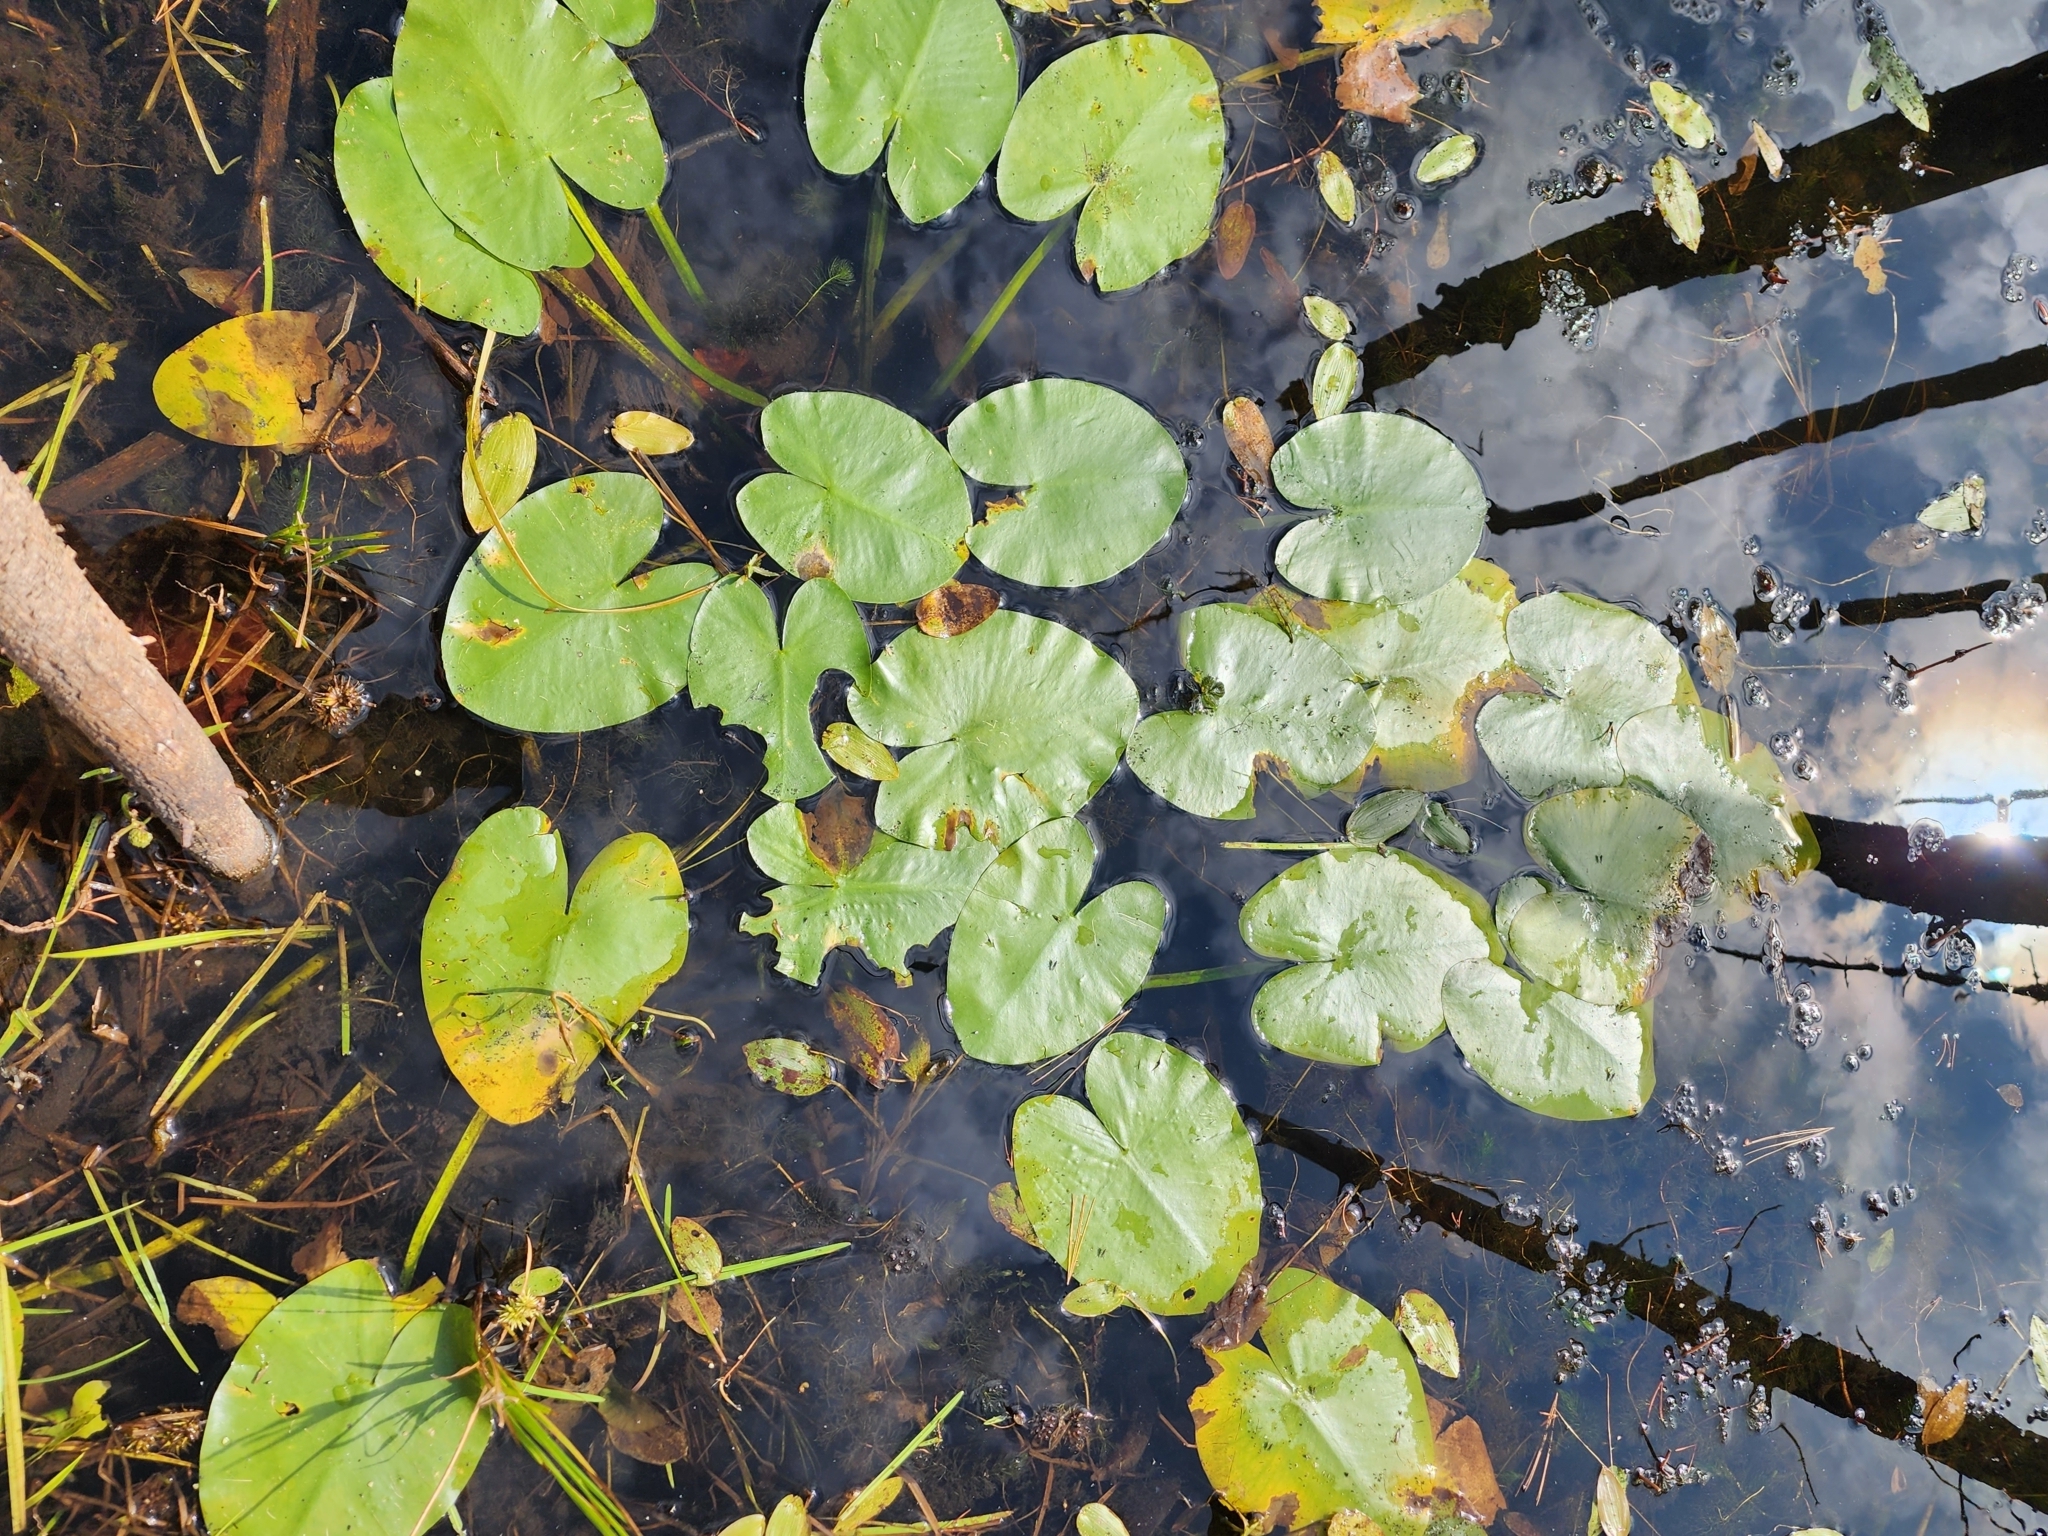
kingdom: Plantae
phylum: Tracheophyta
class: Magnoliopsida
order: Nymphaeales
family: Nymphaeaceae
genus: Nuphar
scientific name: Nuphar variegata
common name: Beaver-root
